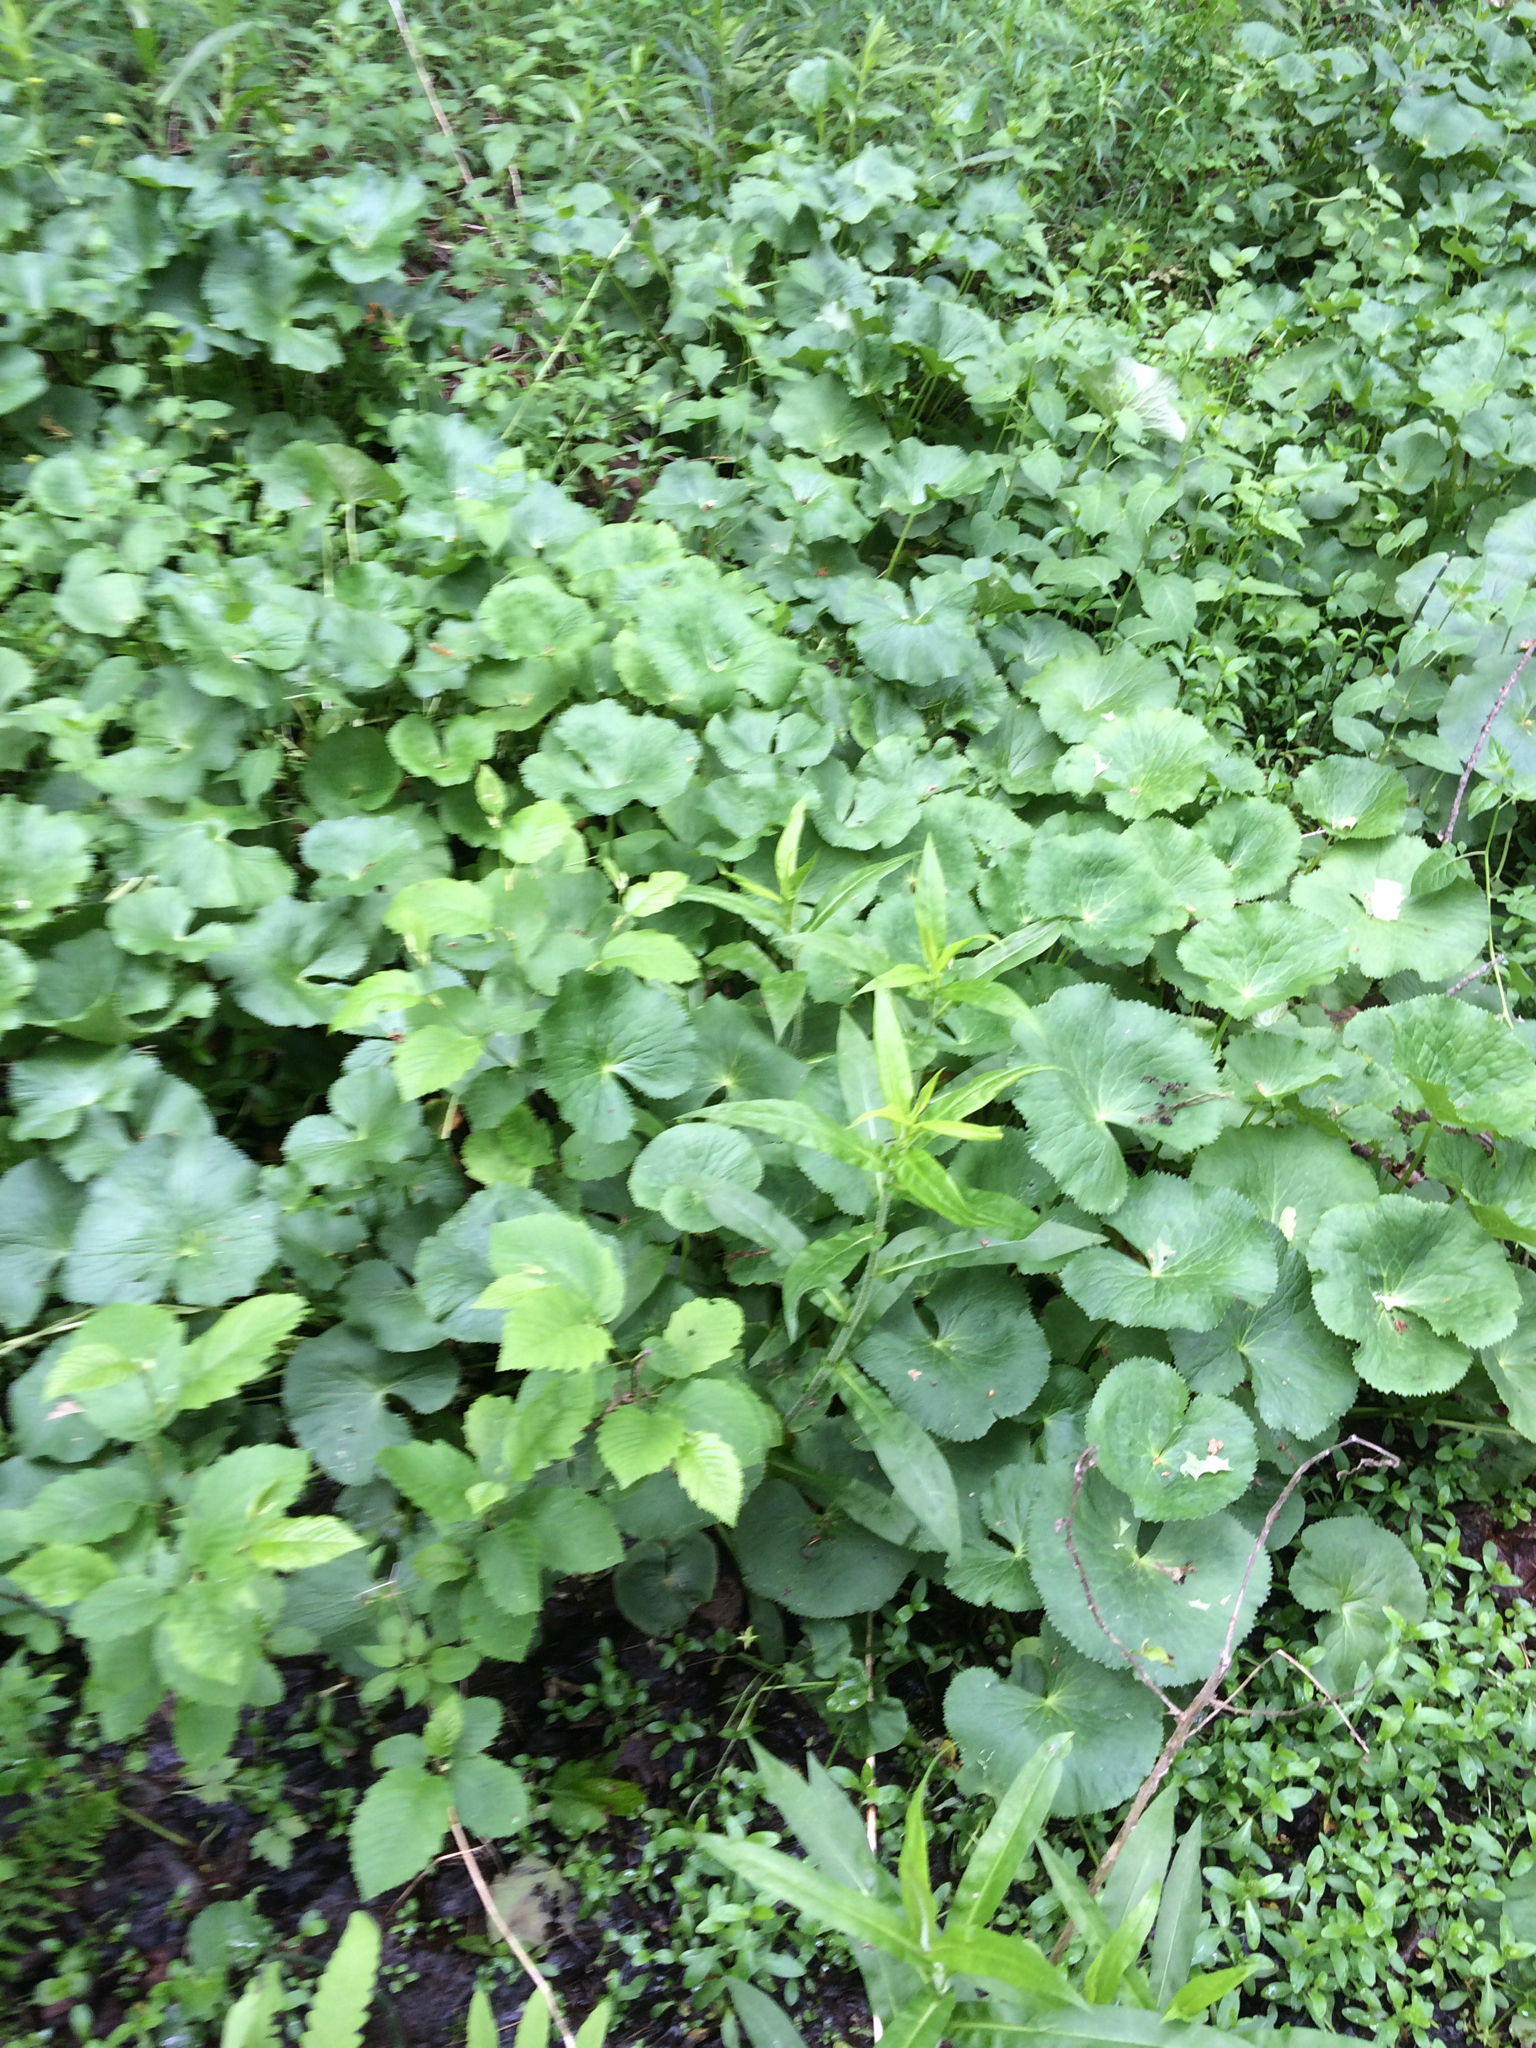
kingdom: Plantae
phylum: Tracheophyta
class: Magnoliopsida
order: Ranunculales
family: Ranunculaceae
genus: Caltha
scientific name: Caltha palustris
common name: Marsh marigold
